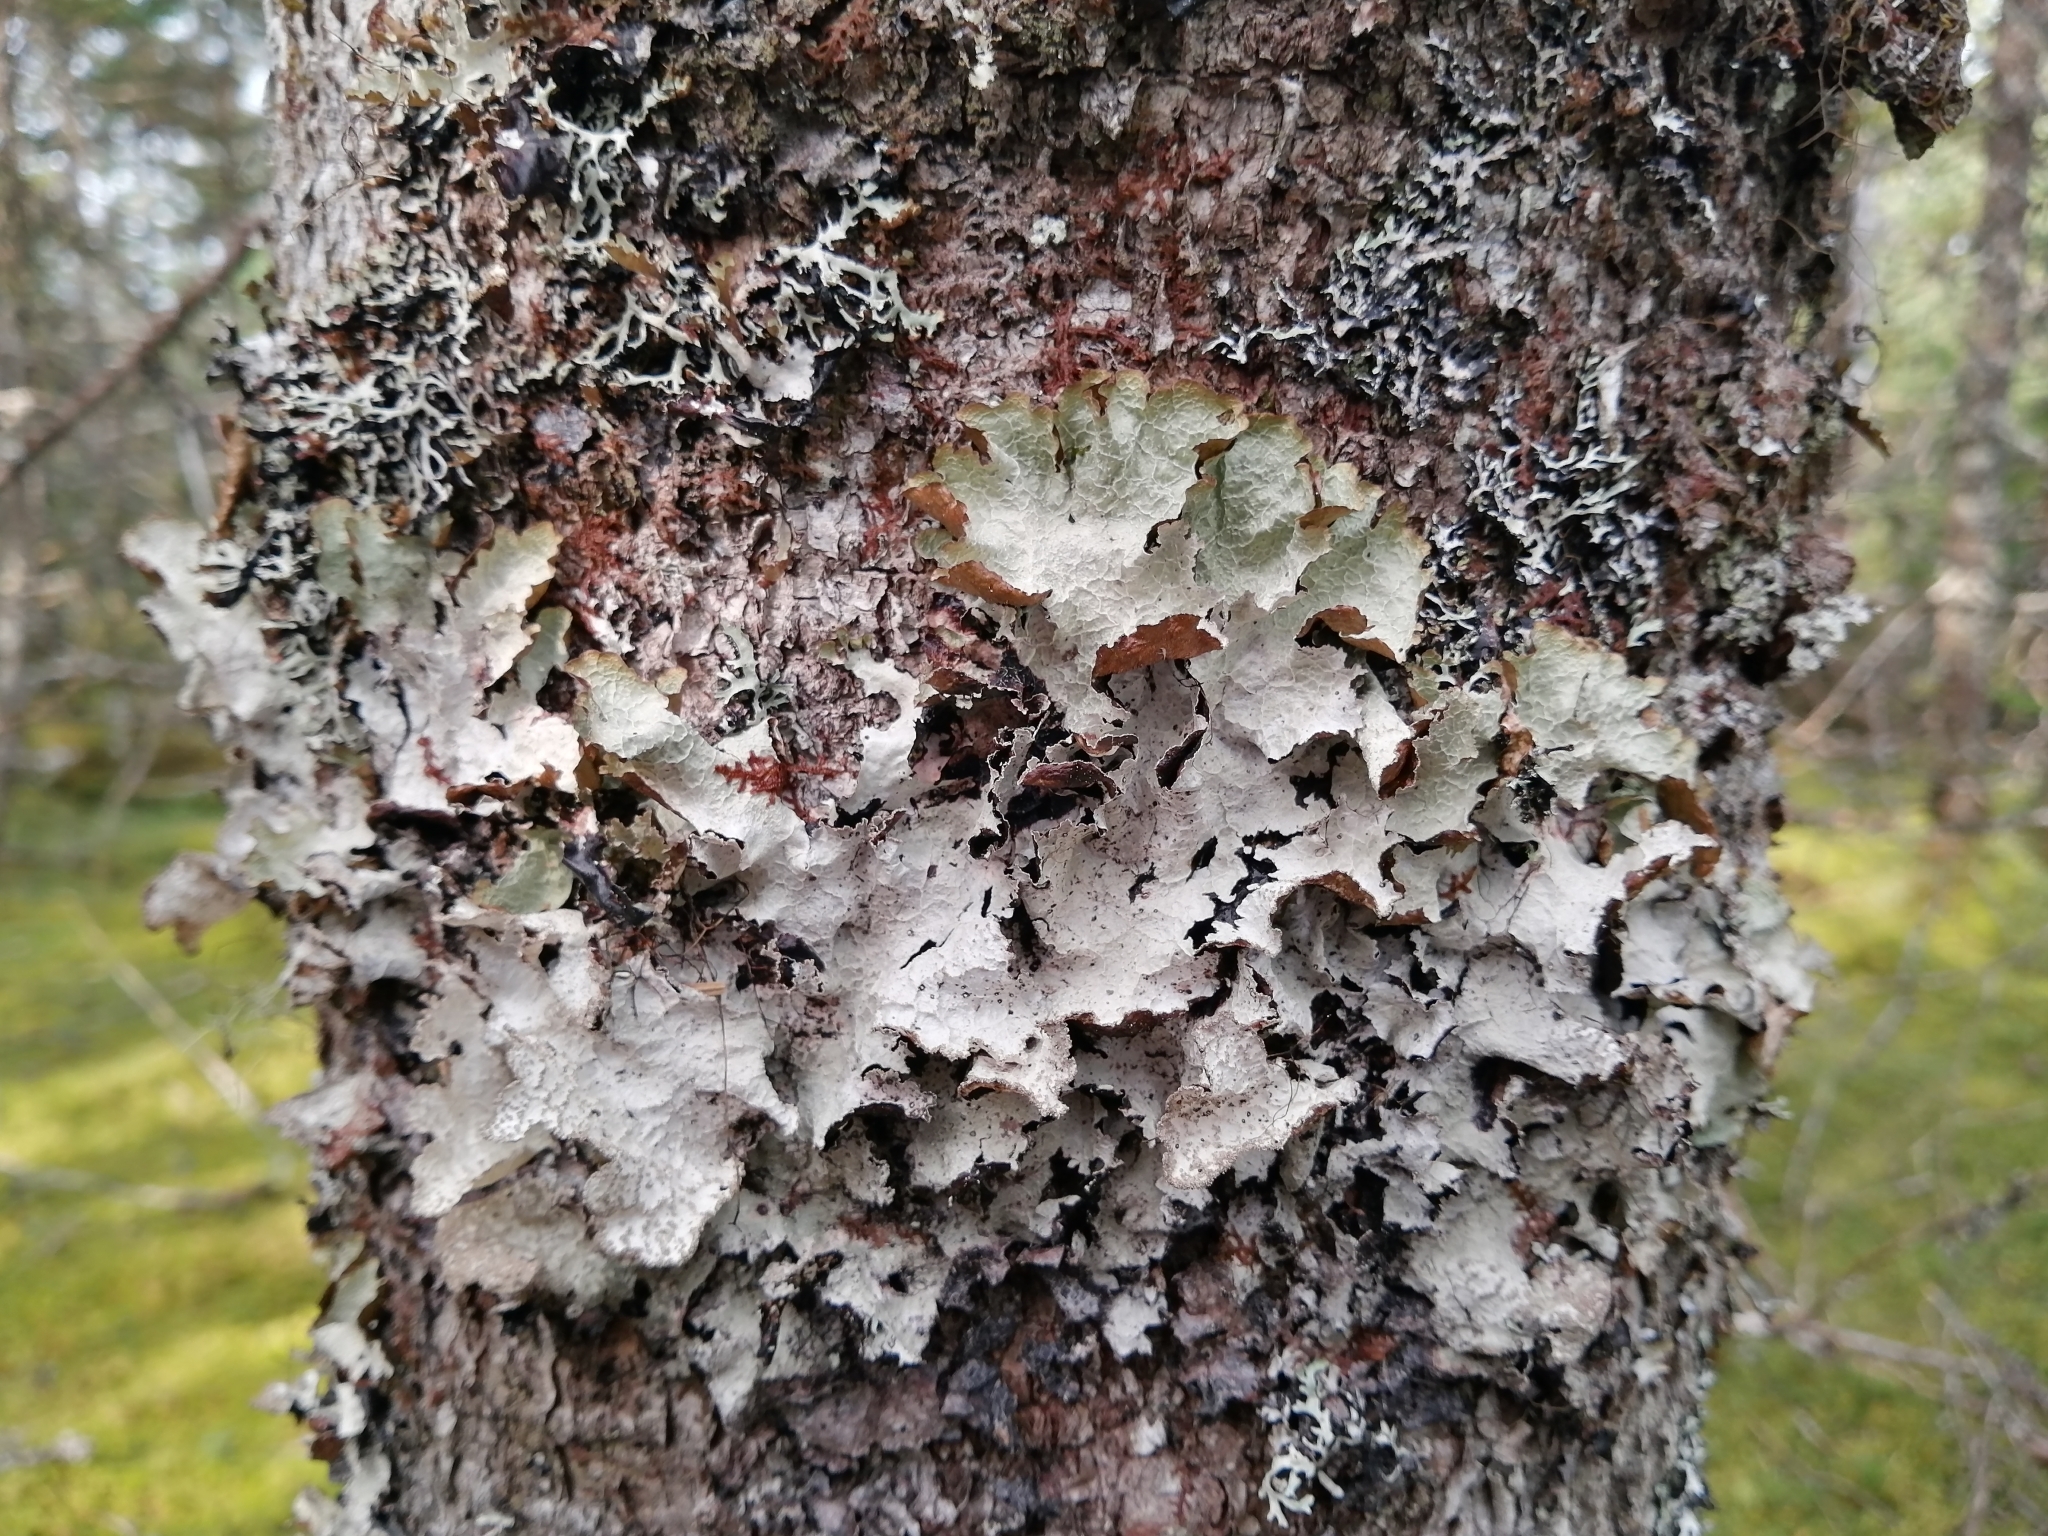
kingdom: Fungi
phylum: Ascomycota
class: Lecanoromycetes
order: Lecanorales
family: Parmeliaceae
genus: Platismatia
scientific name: Platismatia norvegica
